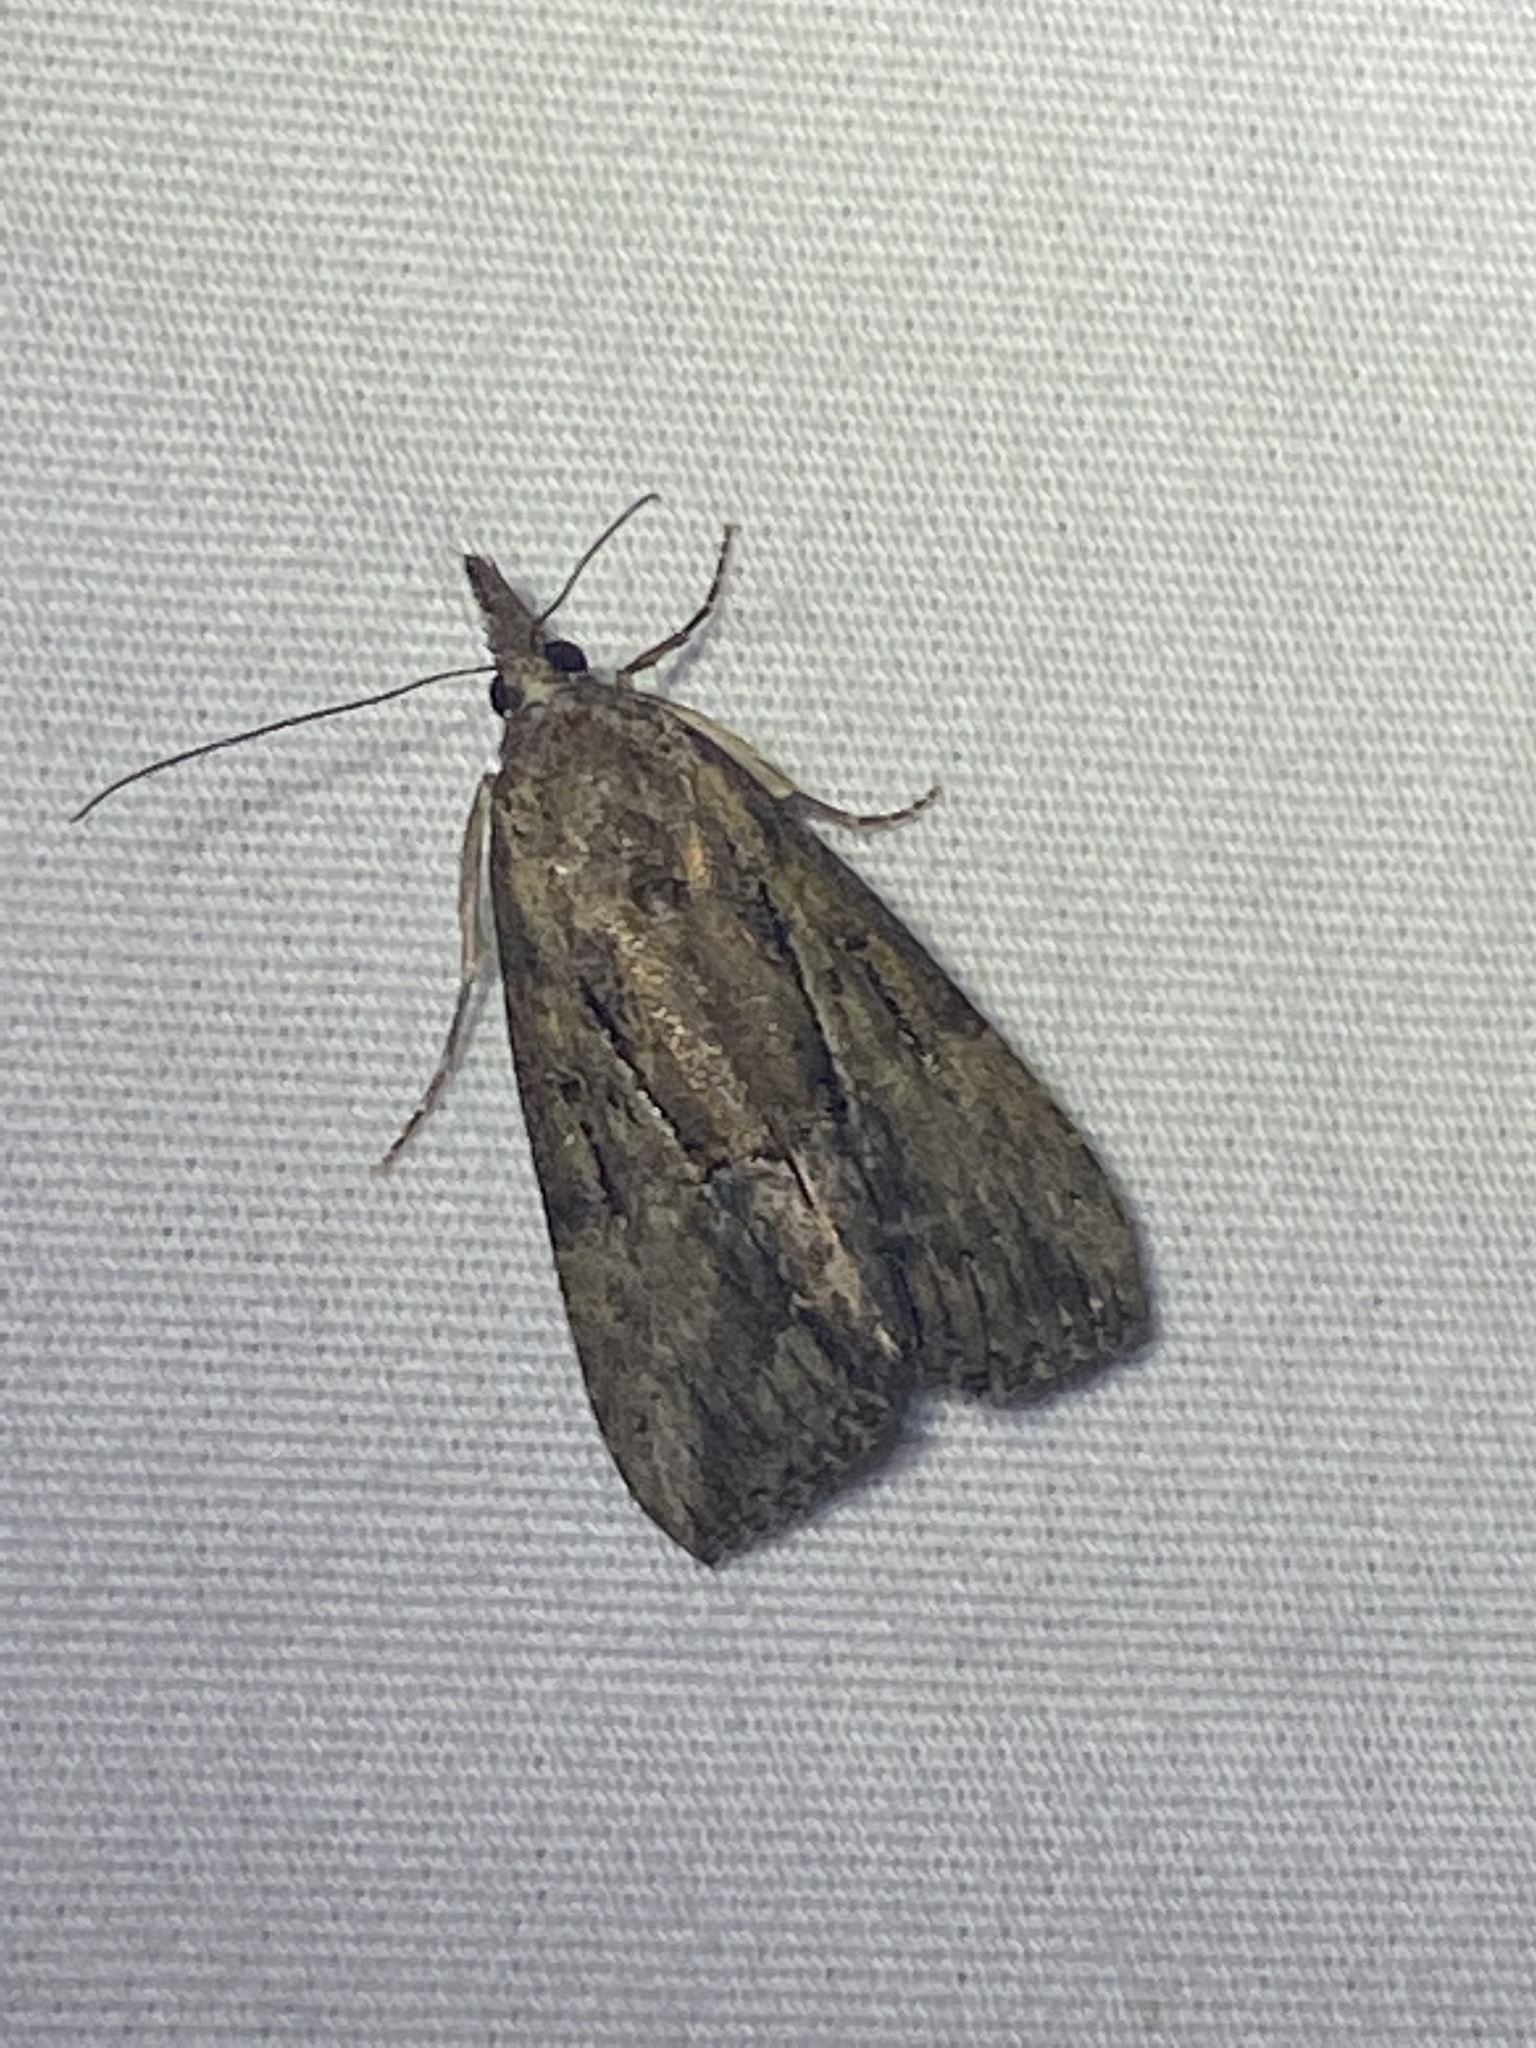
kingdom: Animalia
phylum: Arthropoda
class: Insecta
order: Lepidoptera
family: Erebidae
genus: Hypena
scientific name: Hypena scabra
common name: Green cloverworm
